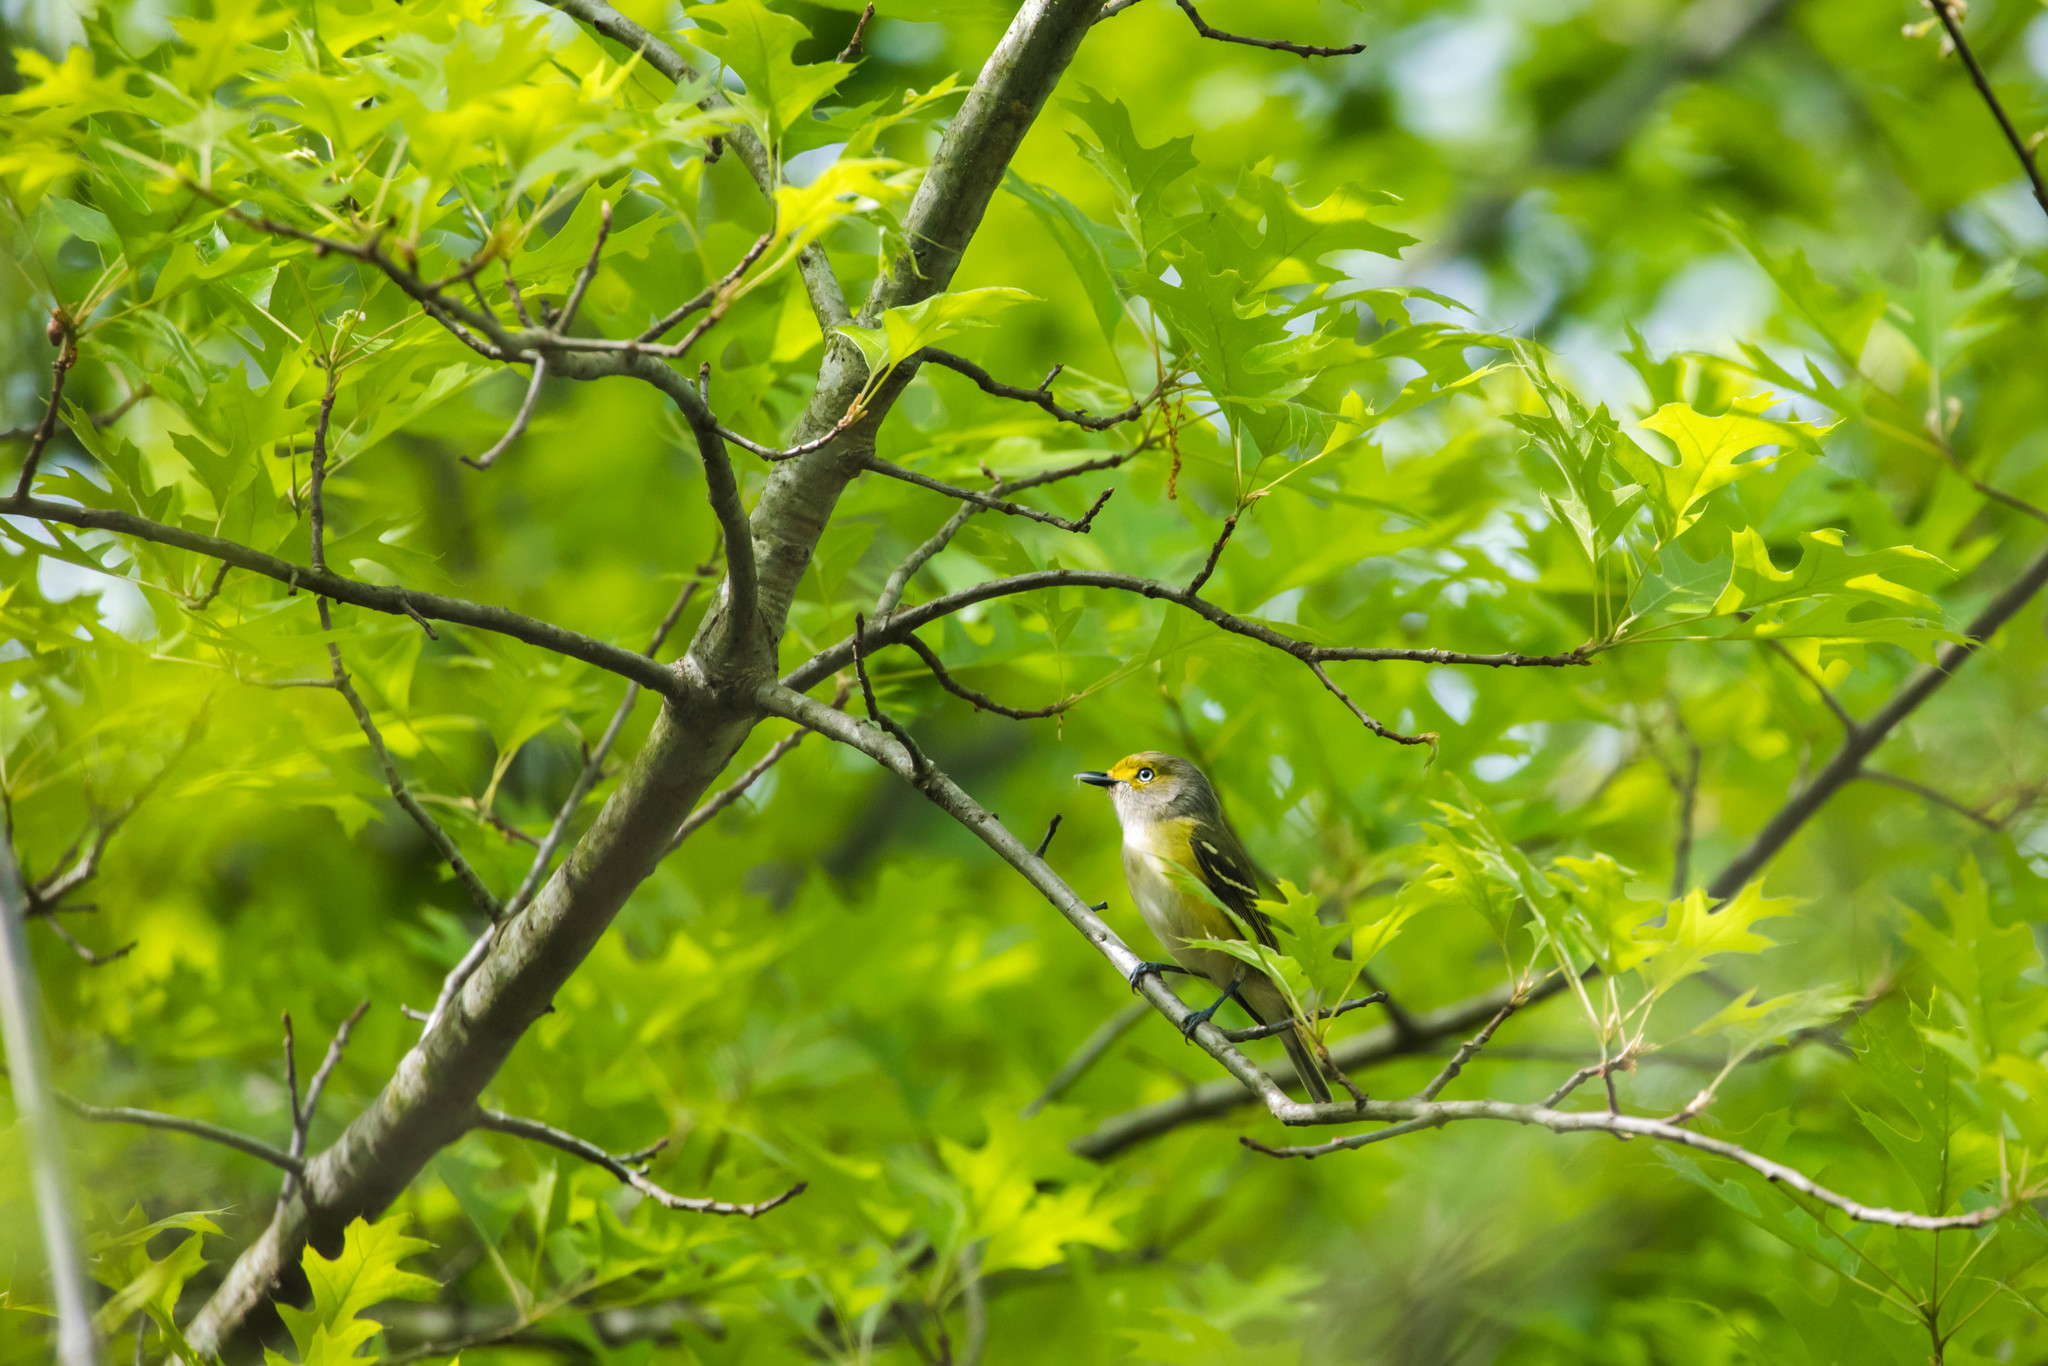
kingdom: Animalia
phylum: Chordata
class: Aves
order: Passeriformes
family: Vireonidae
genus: Vireo
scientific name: Vireo griseus
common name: White-eyed vireo
